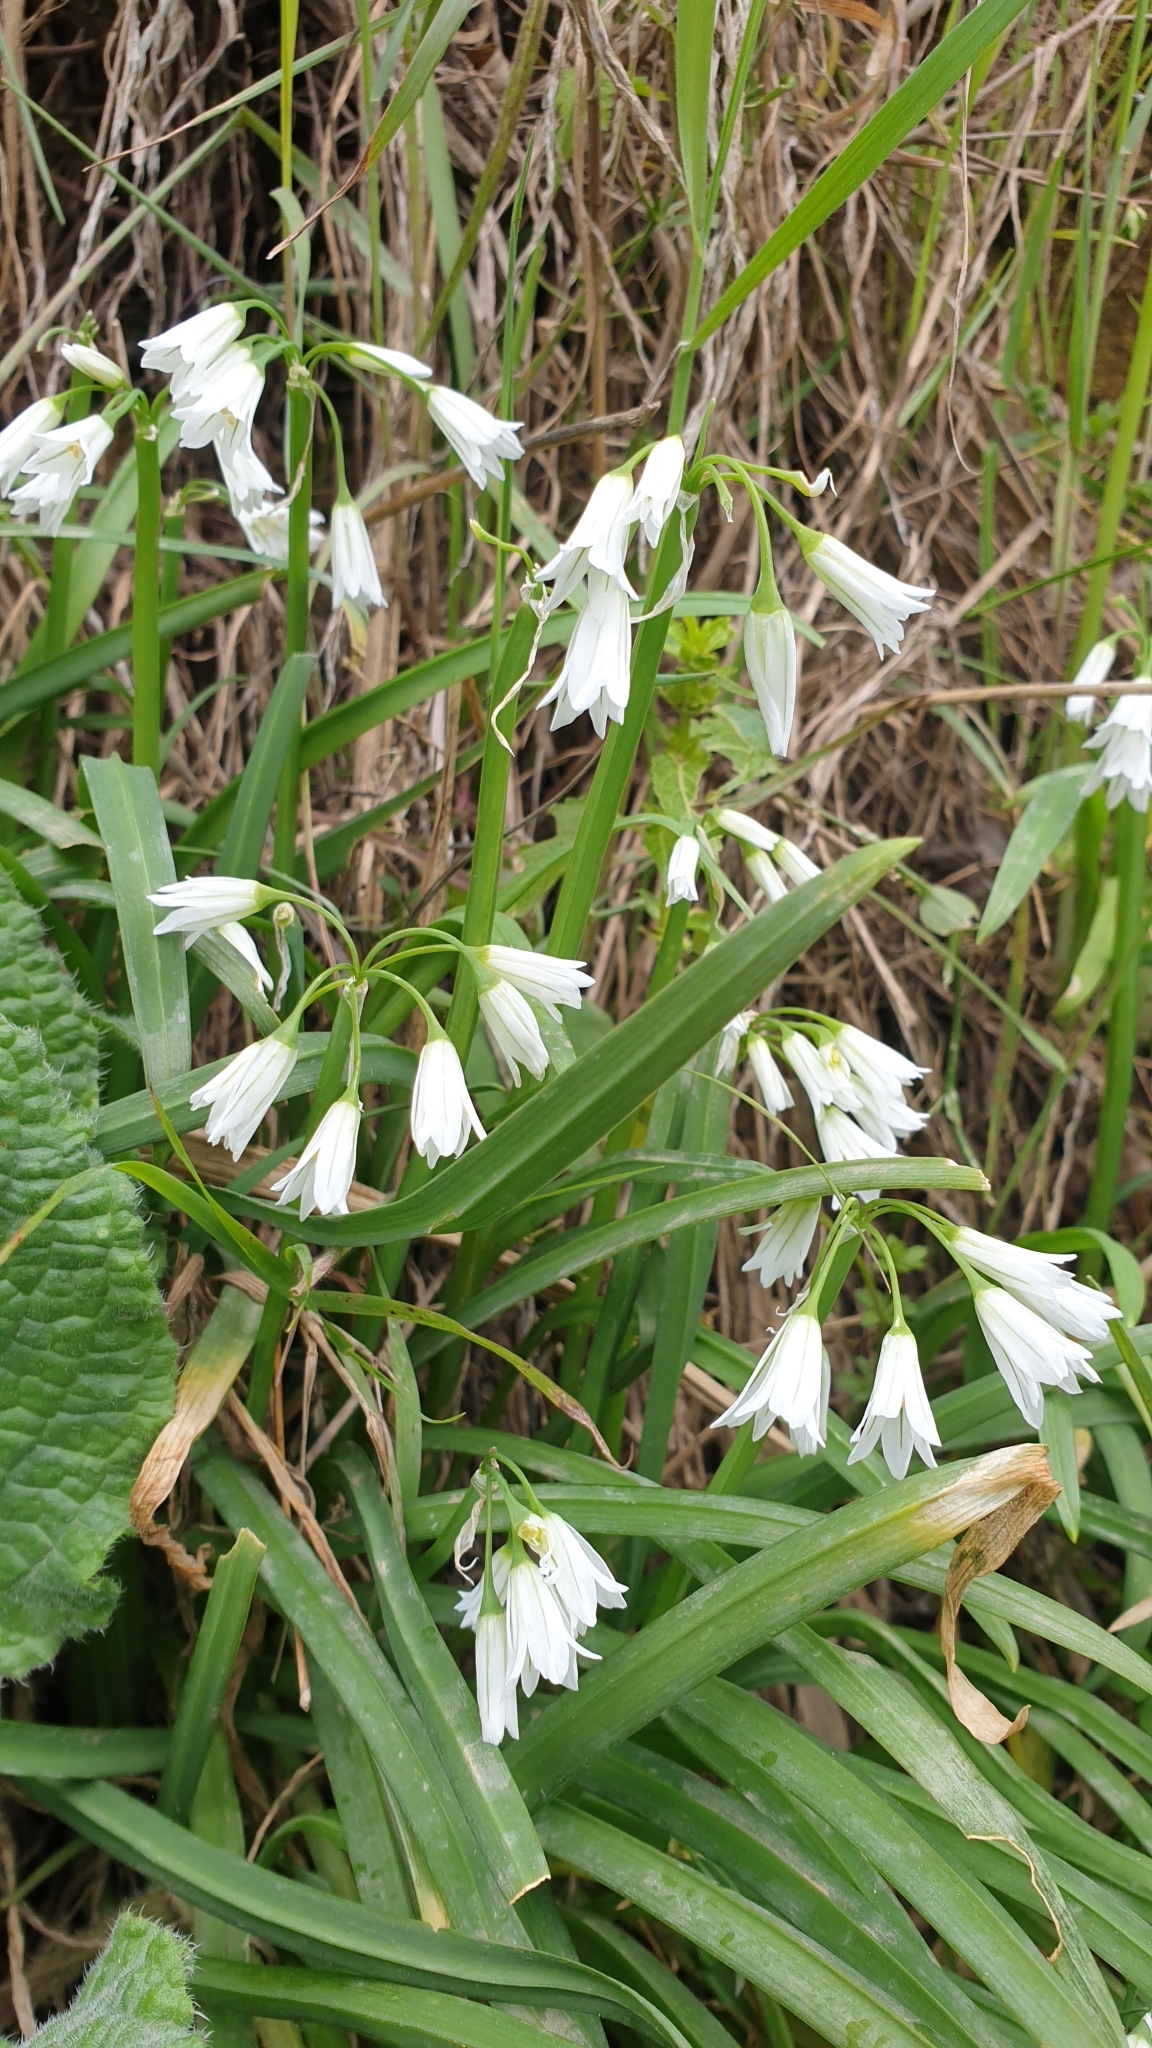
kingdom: Plantae
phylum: Tracheophyta
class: Liliopsida
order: Asparagales
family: Amaryllidaceae
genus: Allium
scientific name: Allium triquetrum
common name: Three-cornered garlic
